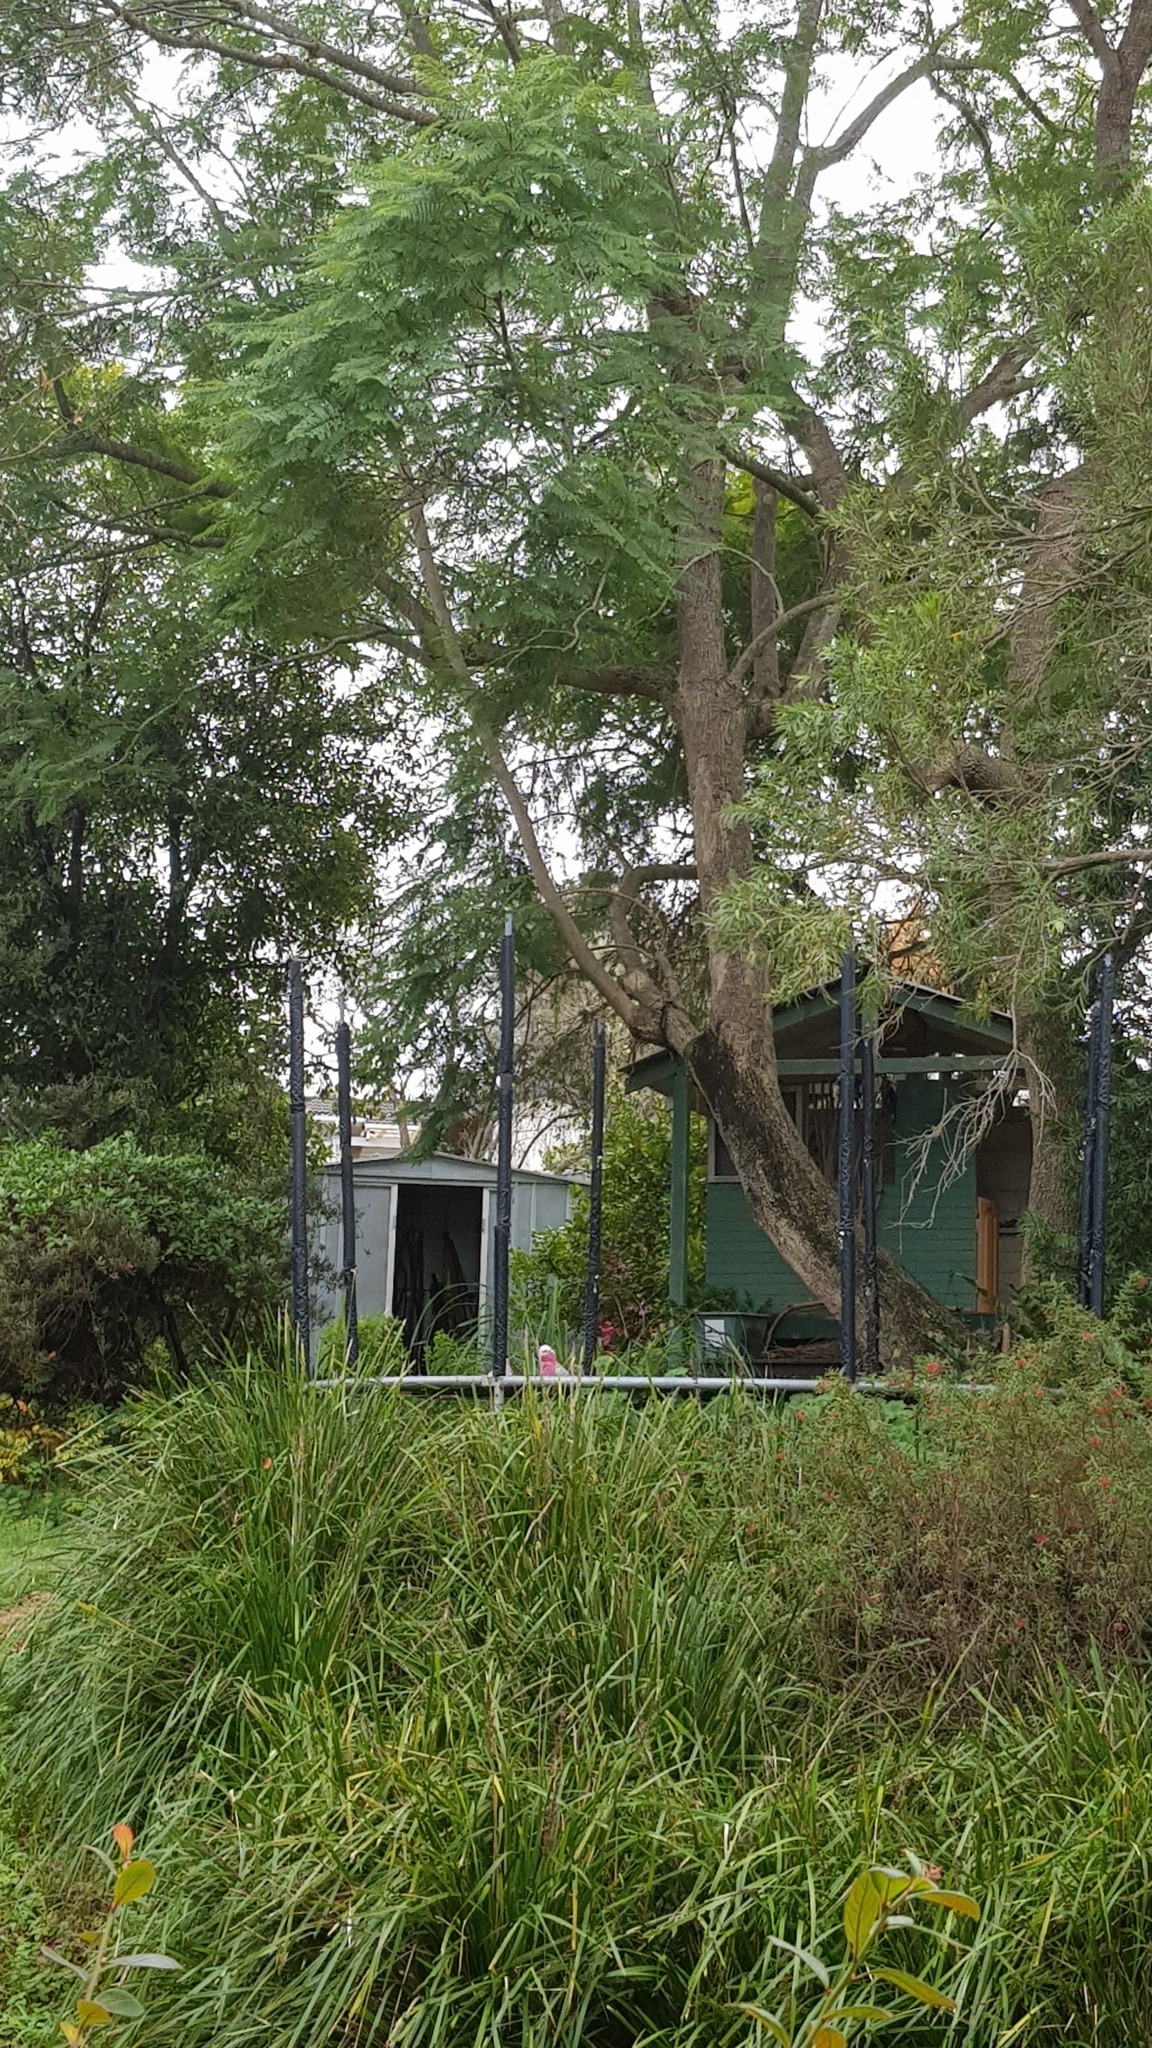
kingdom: Animalia
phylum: Chordata
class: Aves
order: Psittaciformes
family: Psittacidae
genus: Cacatua
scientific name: Cacatua sanguinea
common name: Little corella
